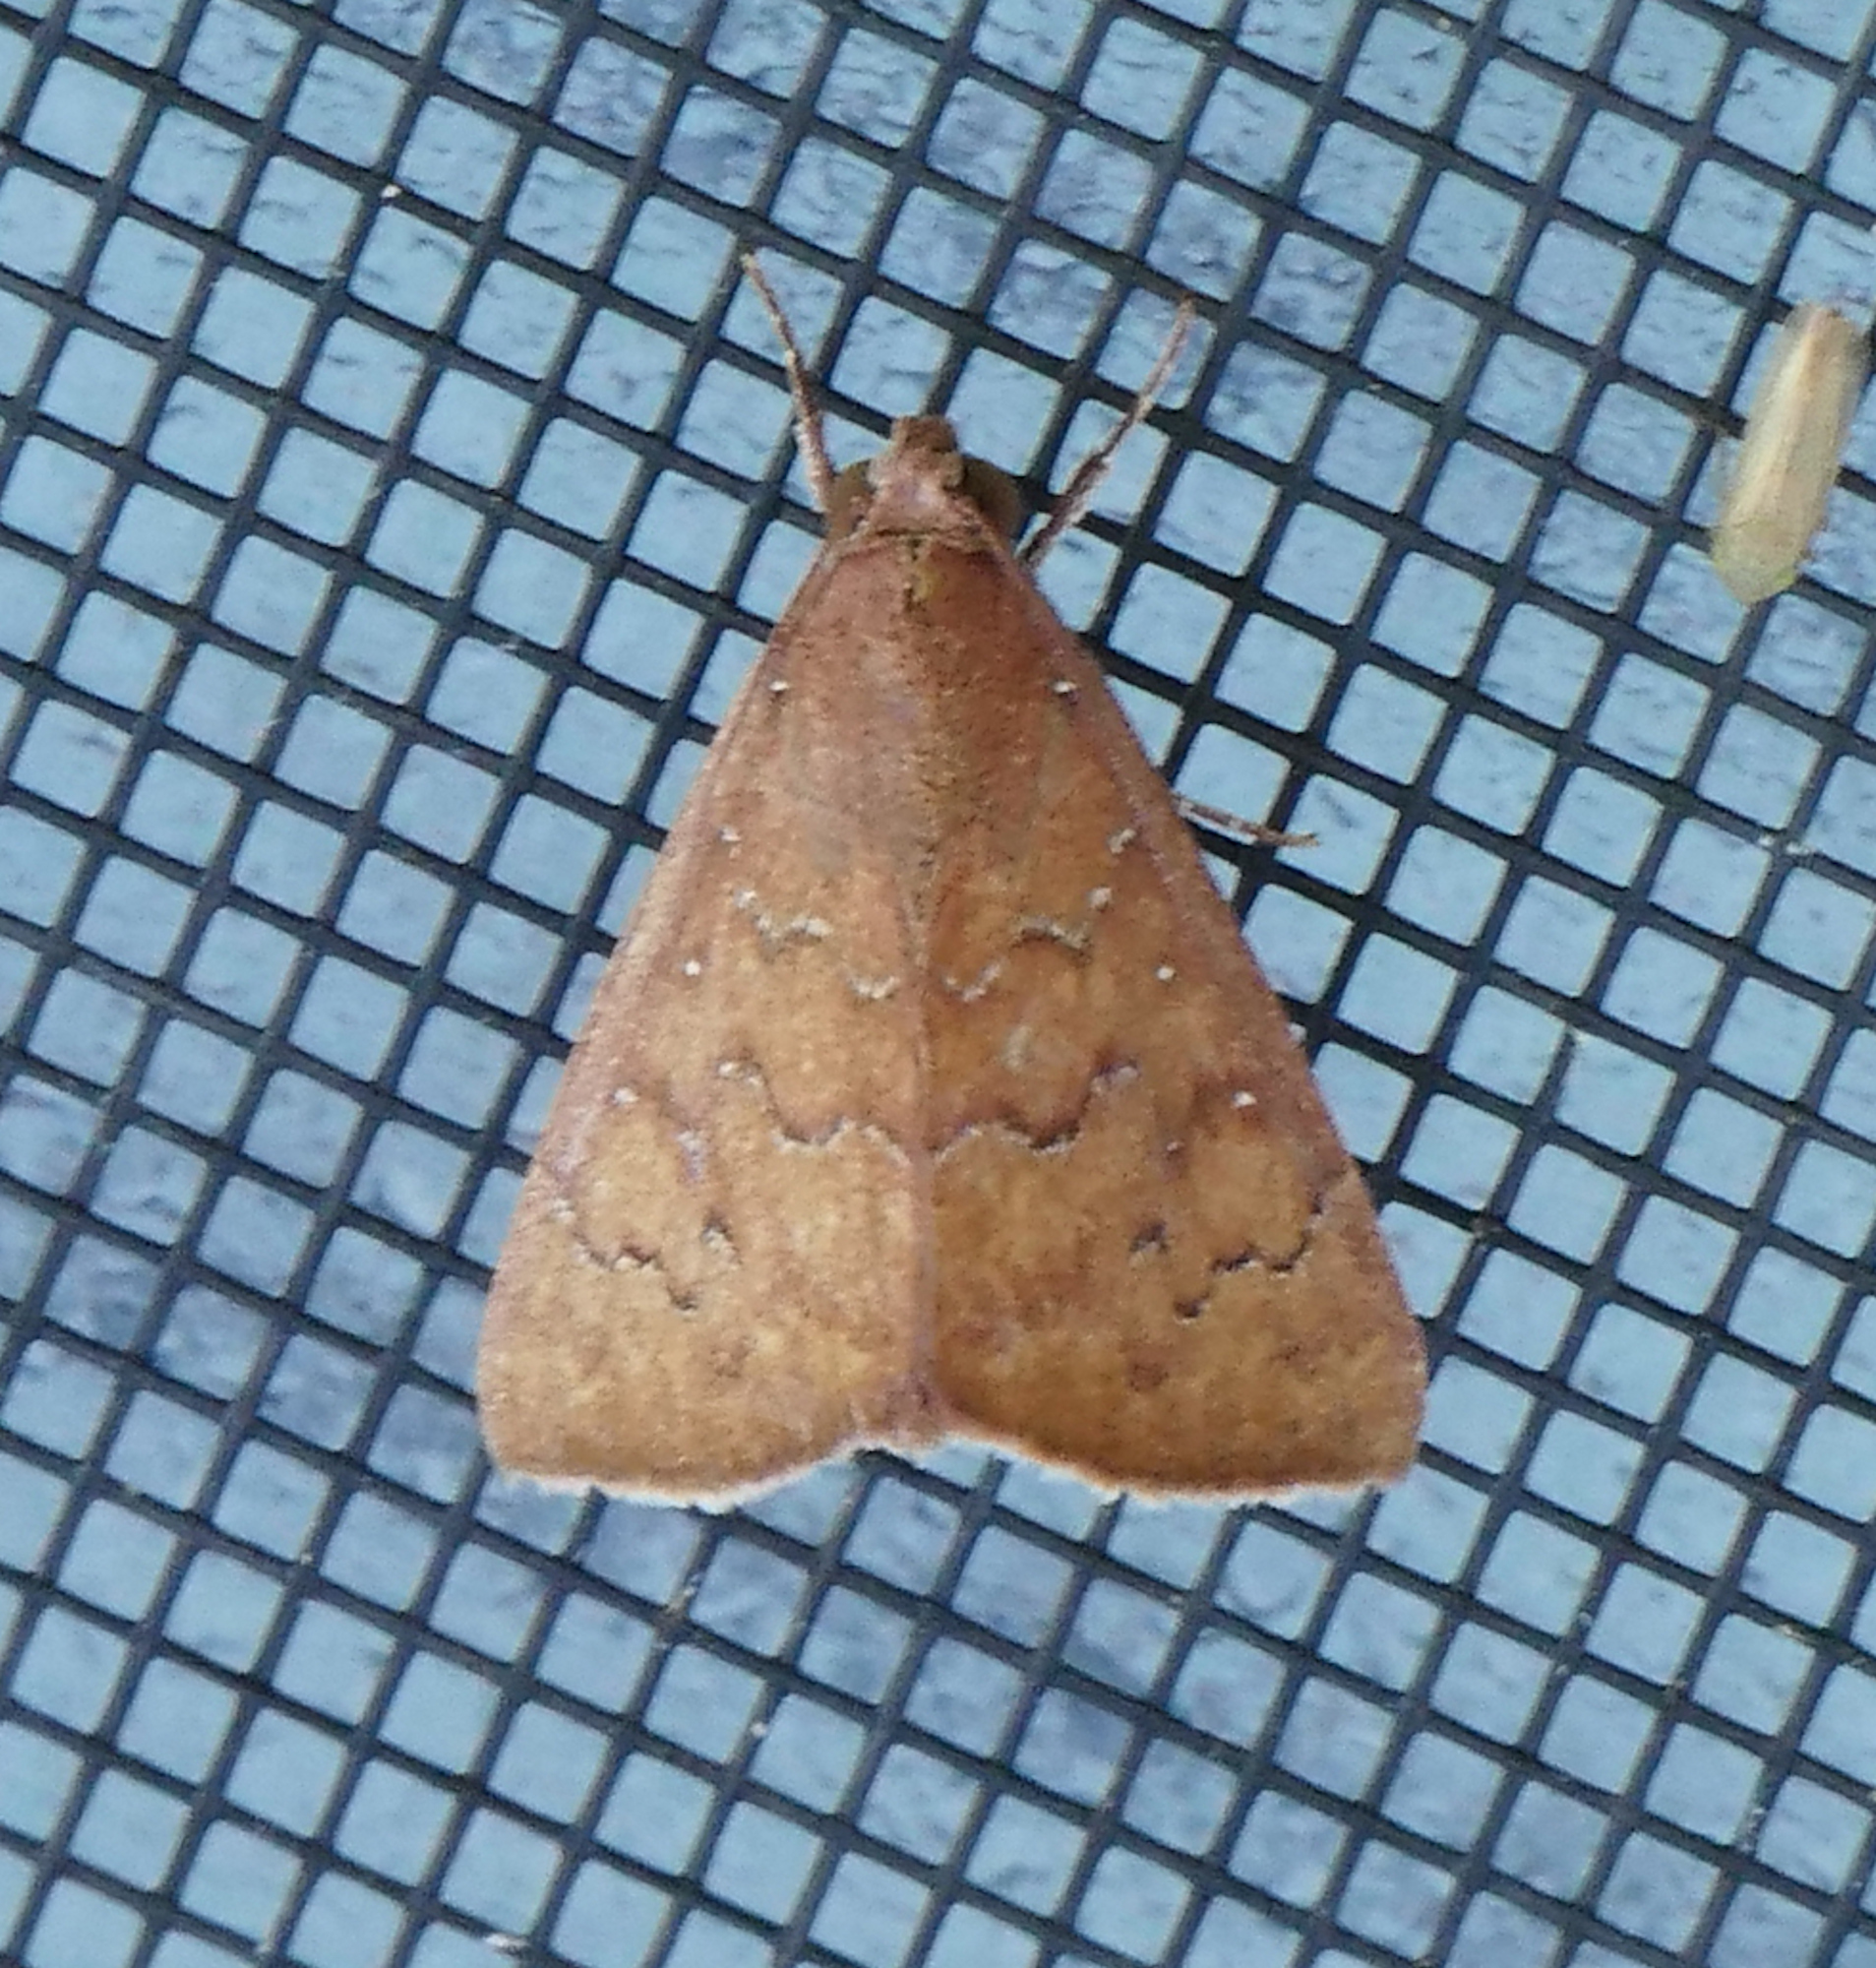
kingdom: Animalia
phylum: Arthropoda
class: Insecta
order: Lepidoptera
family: Erebidae
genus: Anomis
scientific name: Anomis illita
